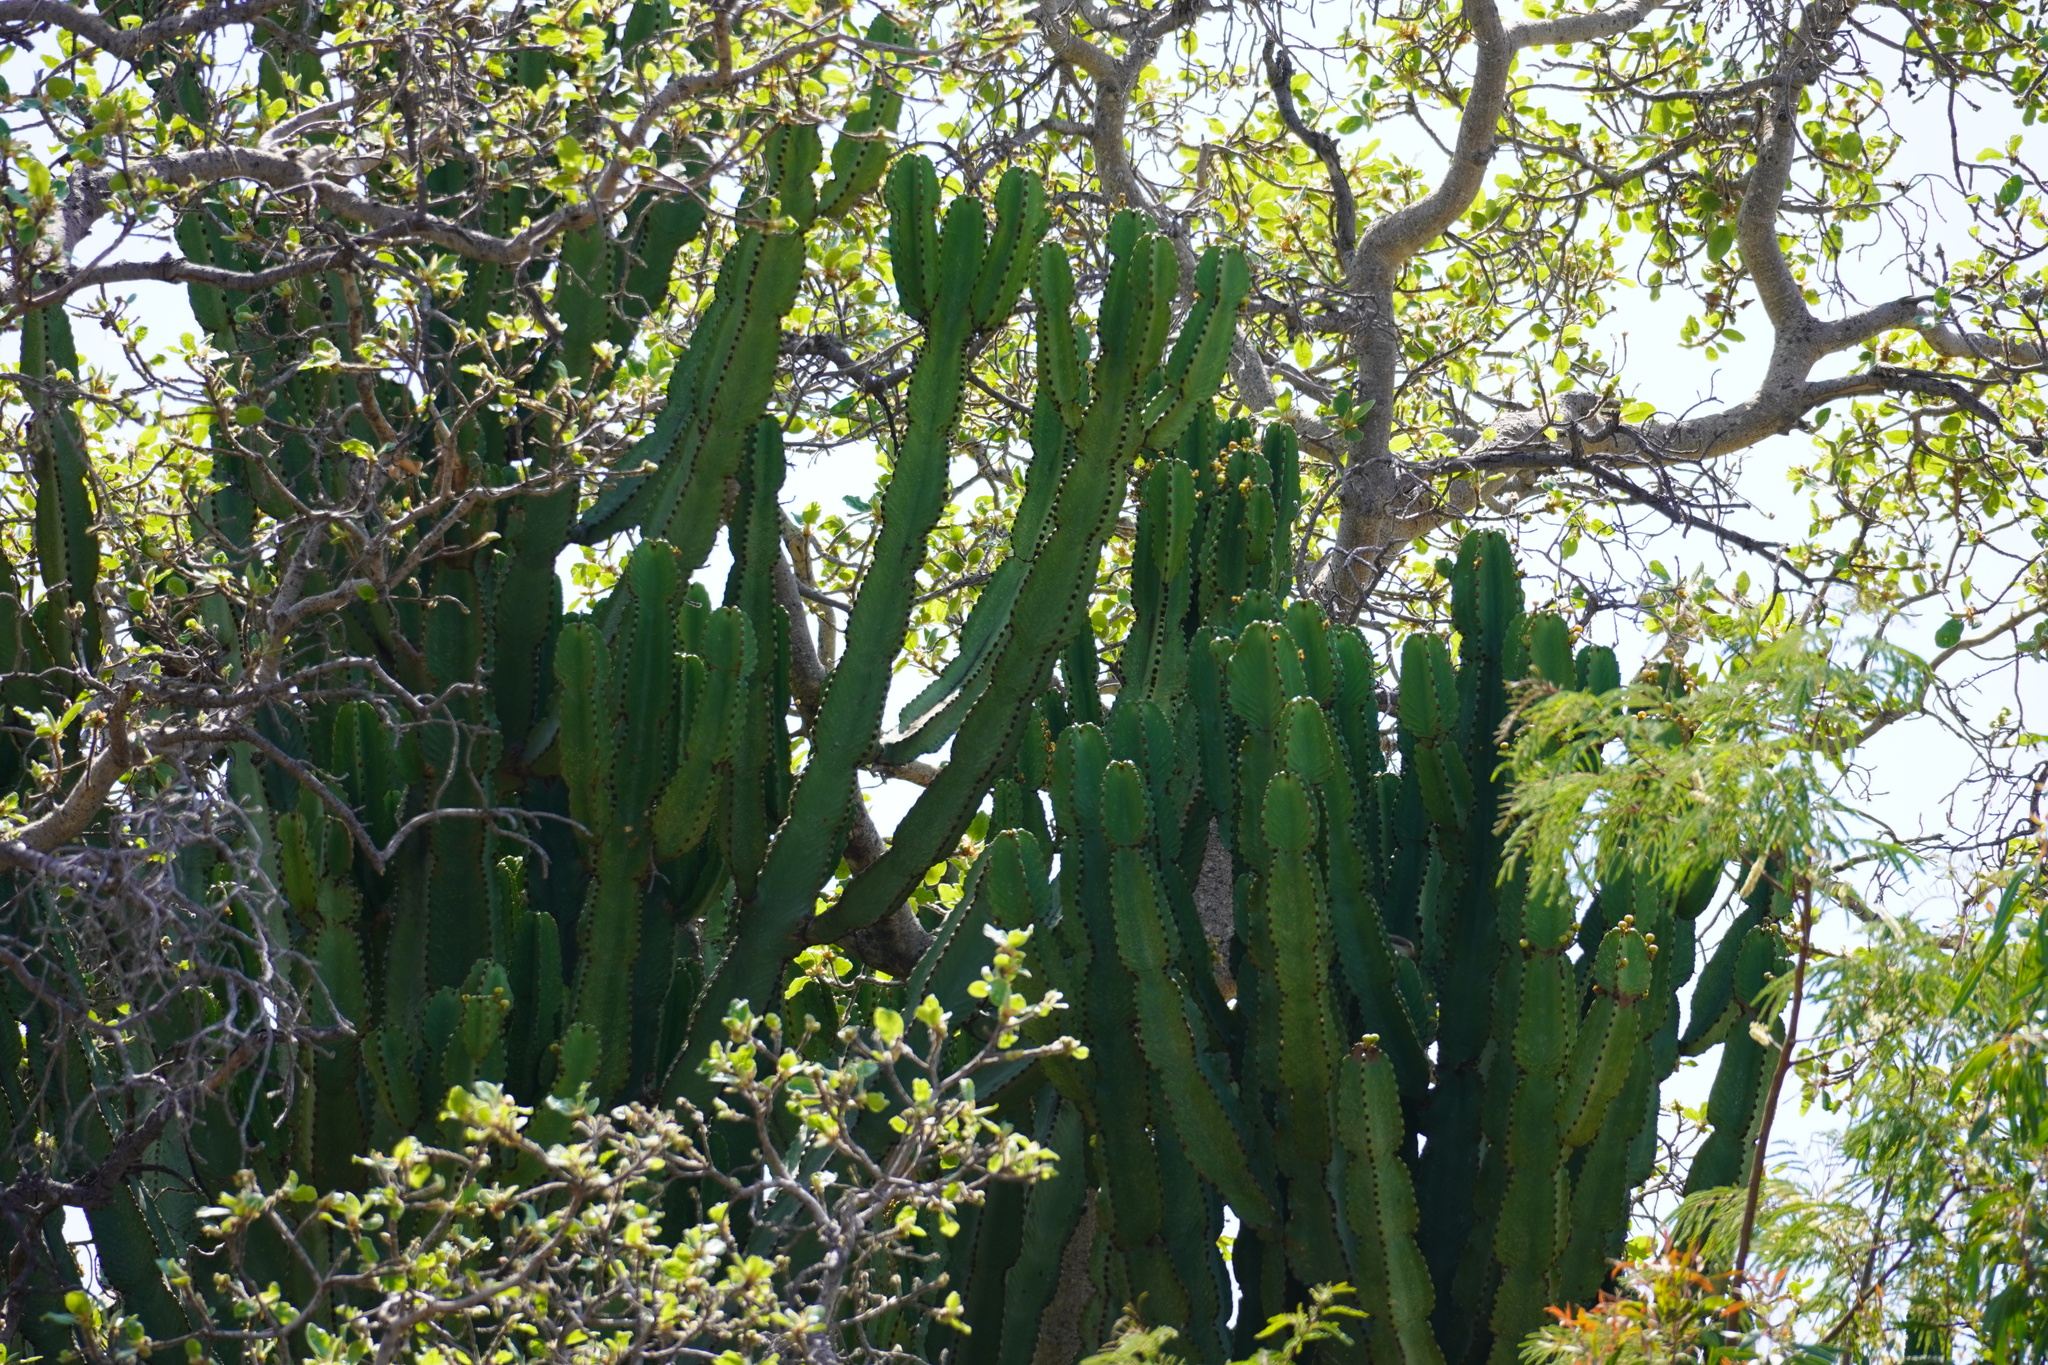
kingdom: Plantae
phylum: Tracheophyta
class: Magnoliopsida
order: Malpighiales
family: Euphorbiaceae
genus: Euphorbia
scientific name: Euphorbia ingens
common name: Cactus spurge
